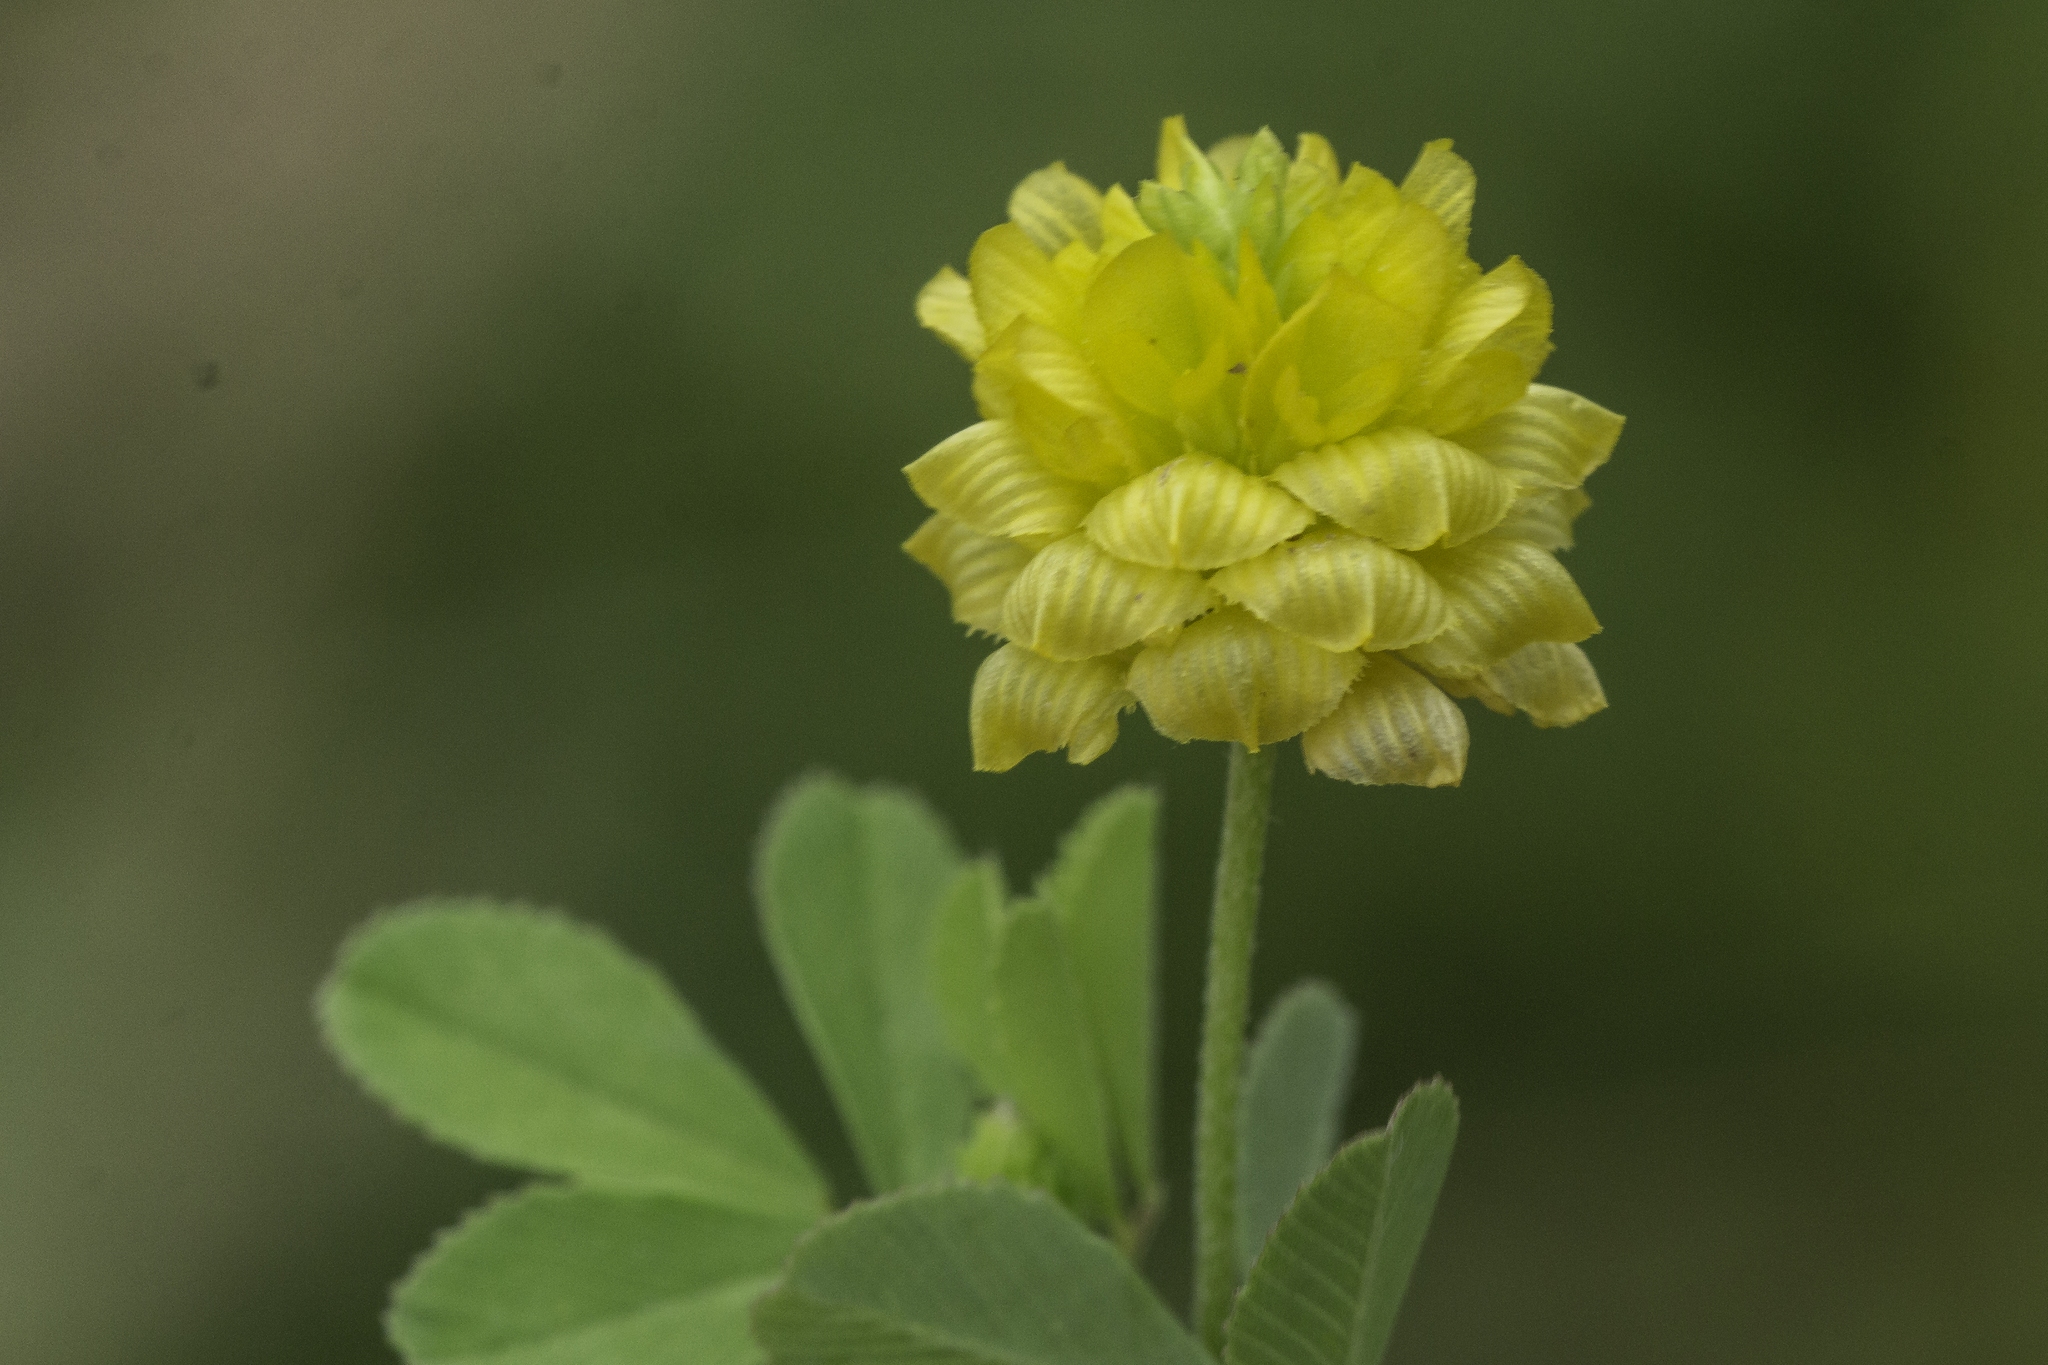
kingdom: Plantae
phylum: Tracheophyta
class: Magnoliopsida
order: Fabales
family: Fabaceae
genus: Trifolium
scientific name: Trifolium campestre
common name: Field clover
